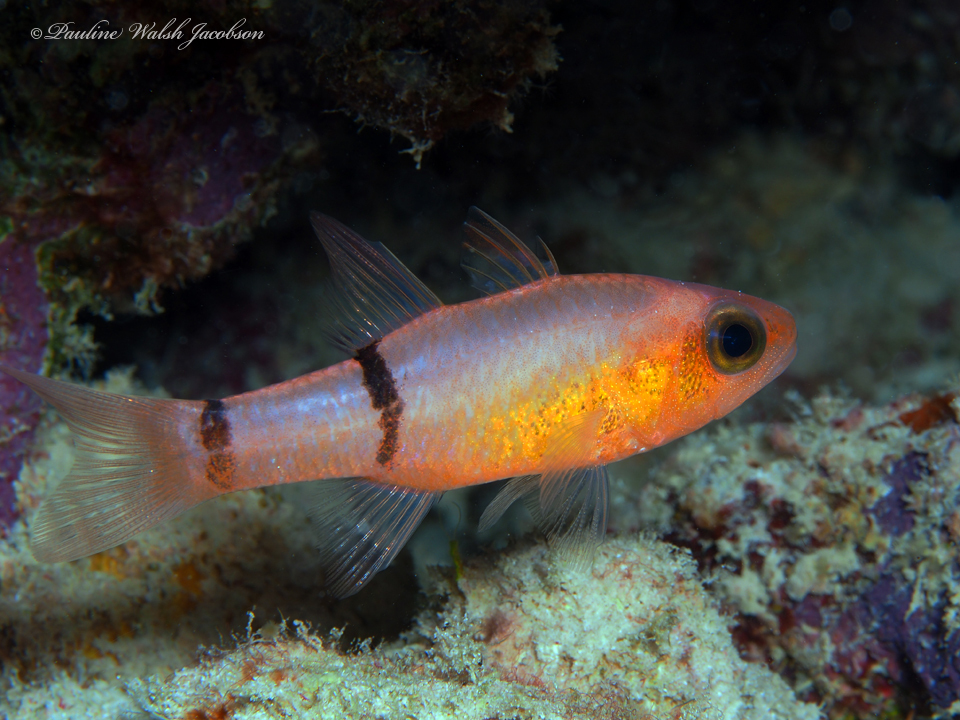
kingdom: Animalia
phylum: Chordata
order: Perciformes
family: Apogonidae
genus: Apogon
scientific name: Apogon binotatus
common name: Barred cardinalfish
